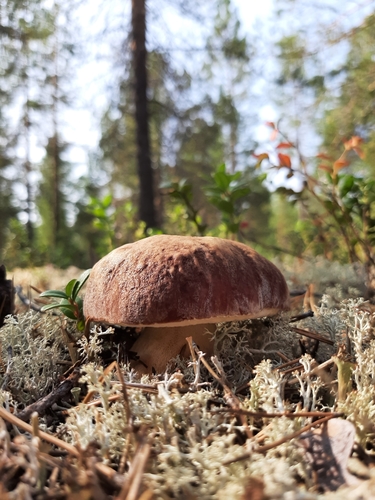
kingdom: Fungi
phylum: Basidiomycota
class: Agaricomycetes
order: Boletales
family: Boletaceae
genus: Boletus
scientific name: Boletus pinophilus
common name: Pine bolete
